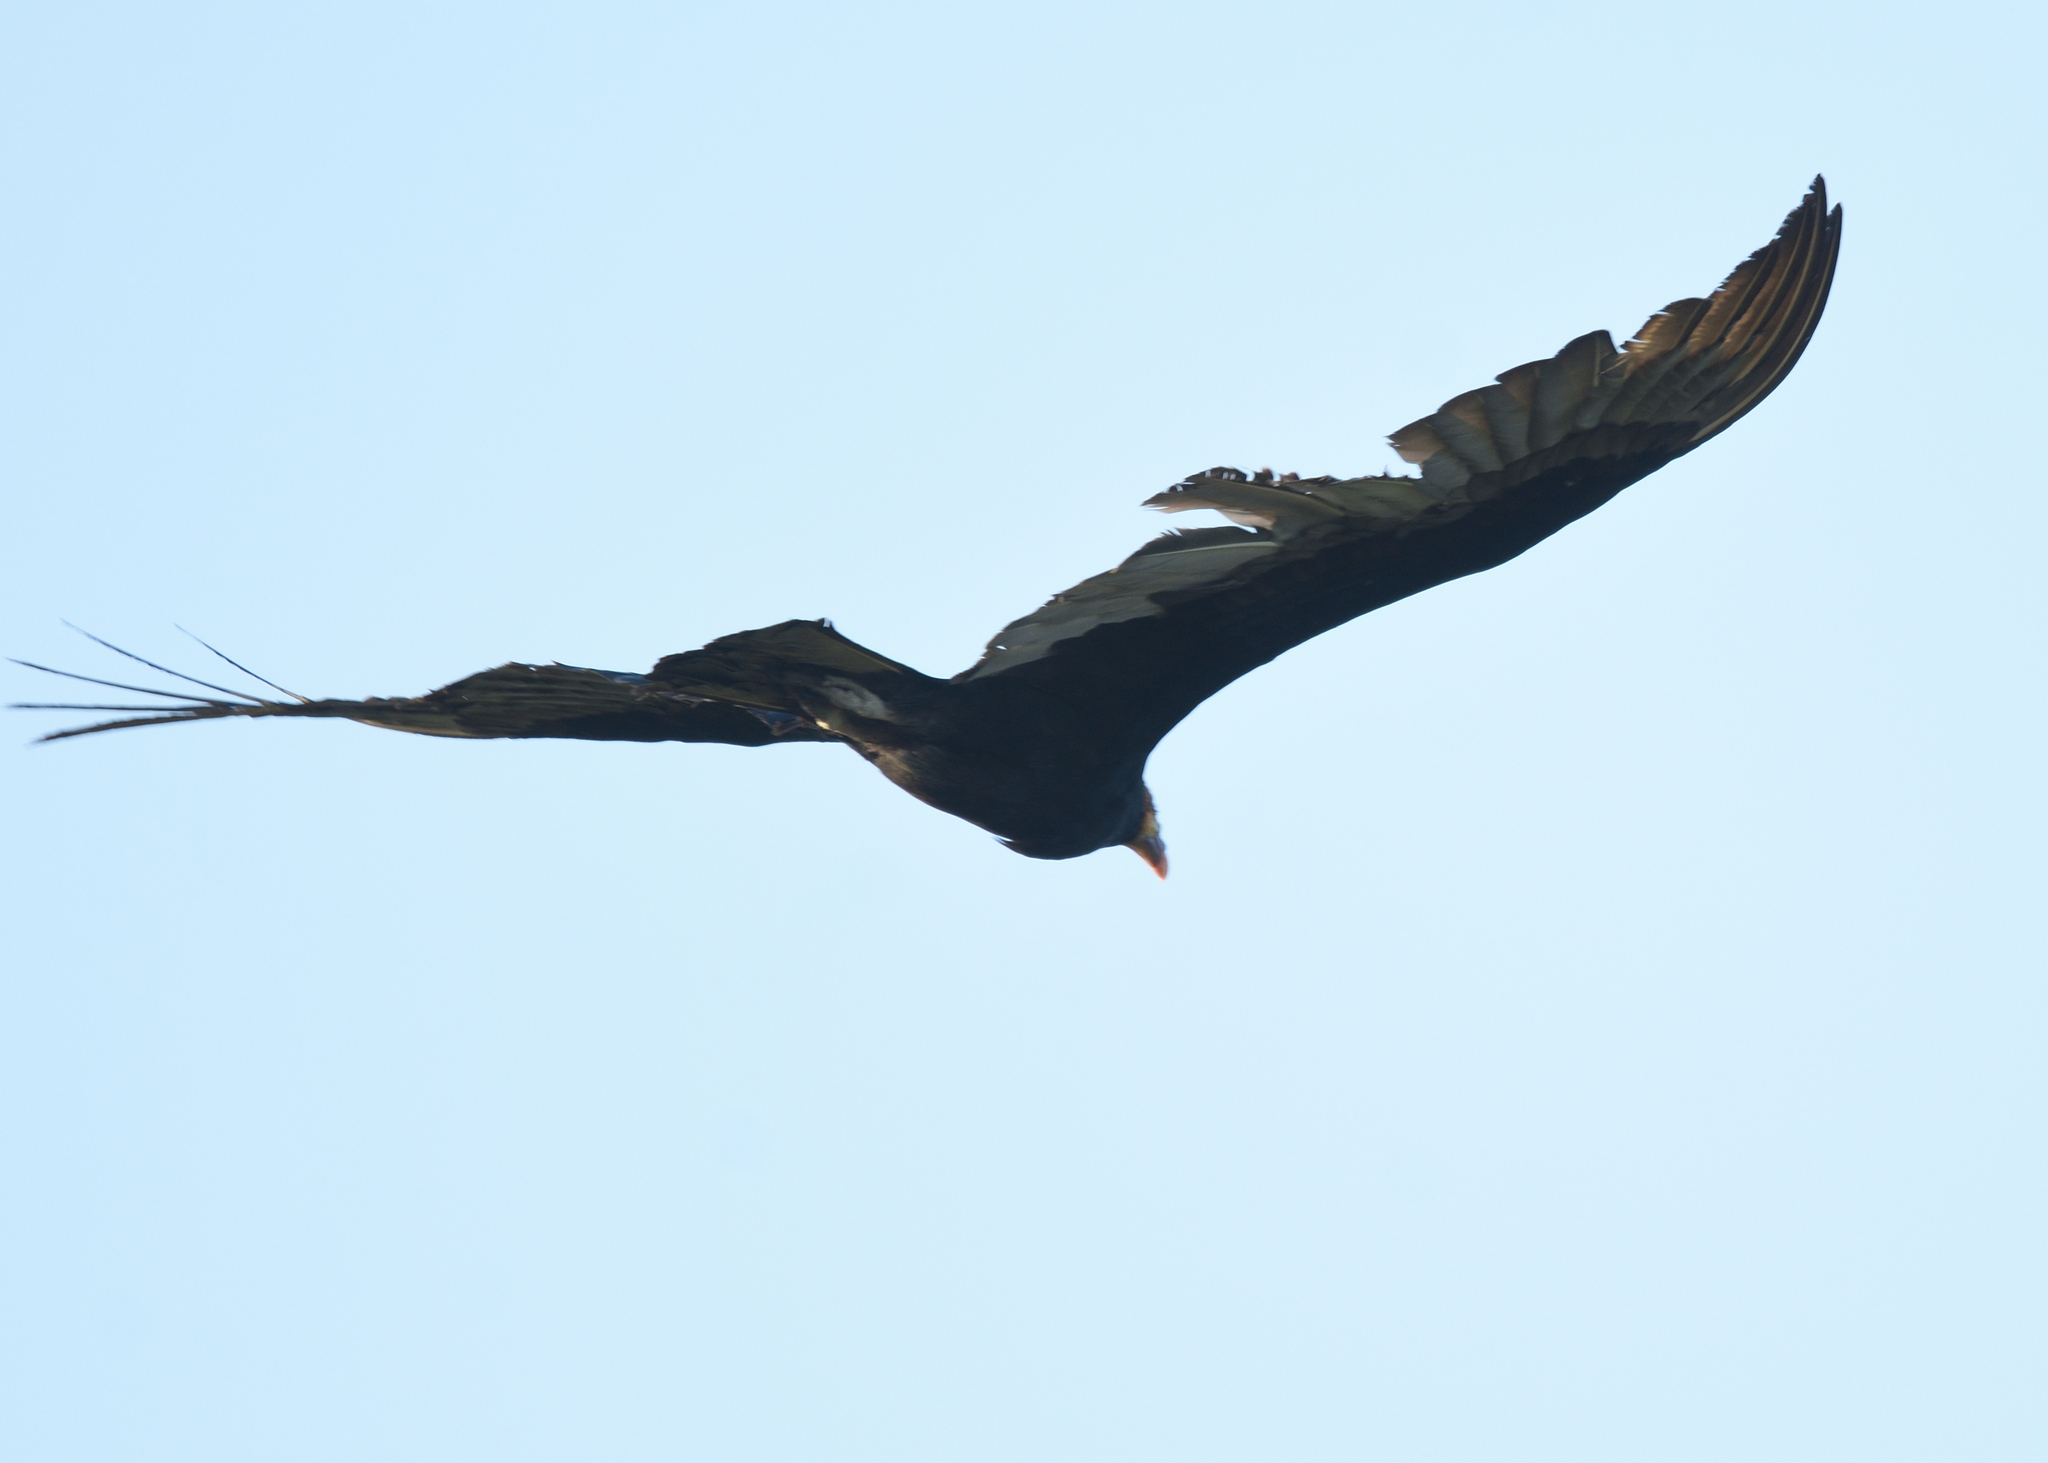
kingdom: Animalia
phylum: Chordata
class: Aves
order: Accipitriformes
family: Cathartidae
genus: Cathartes
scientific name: Cathartes burrovianus
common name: Lesser yellow-headed vulture
